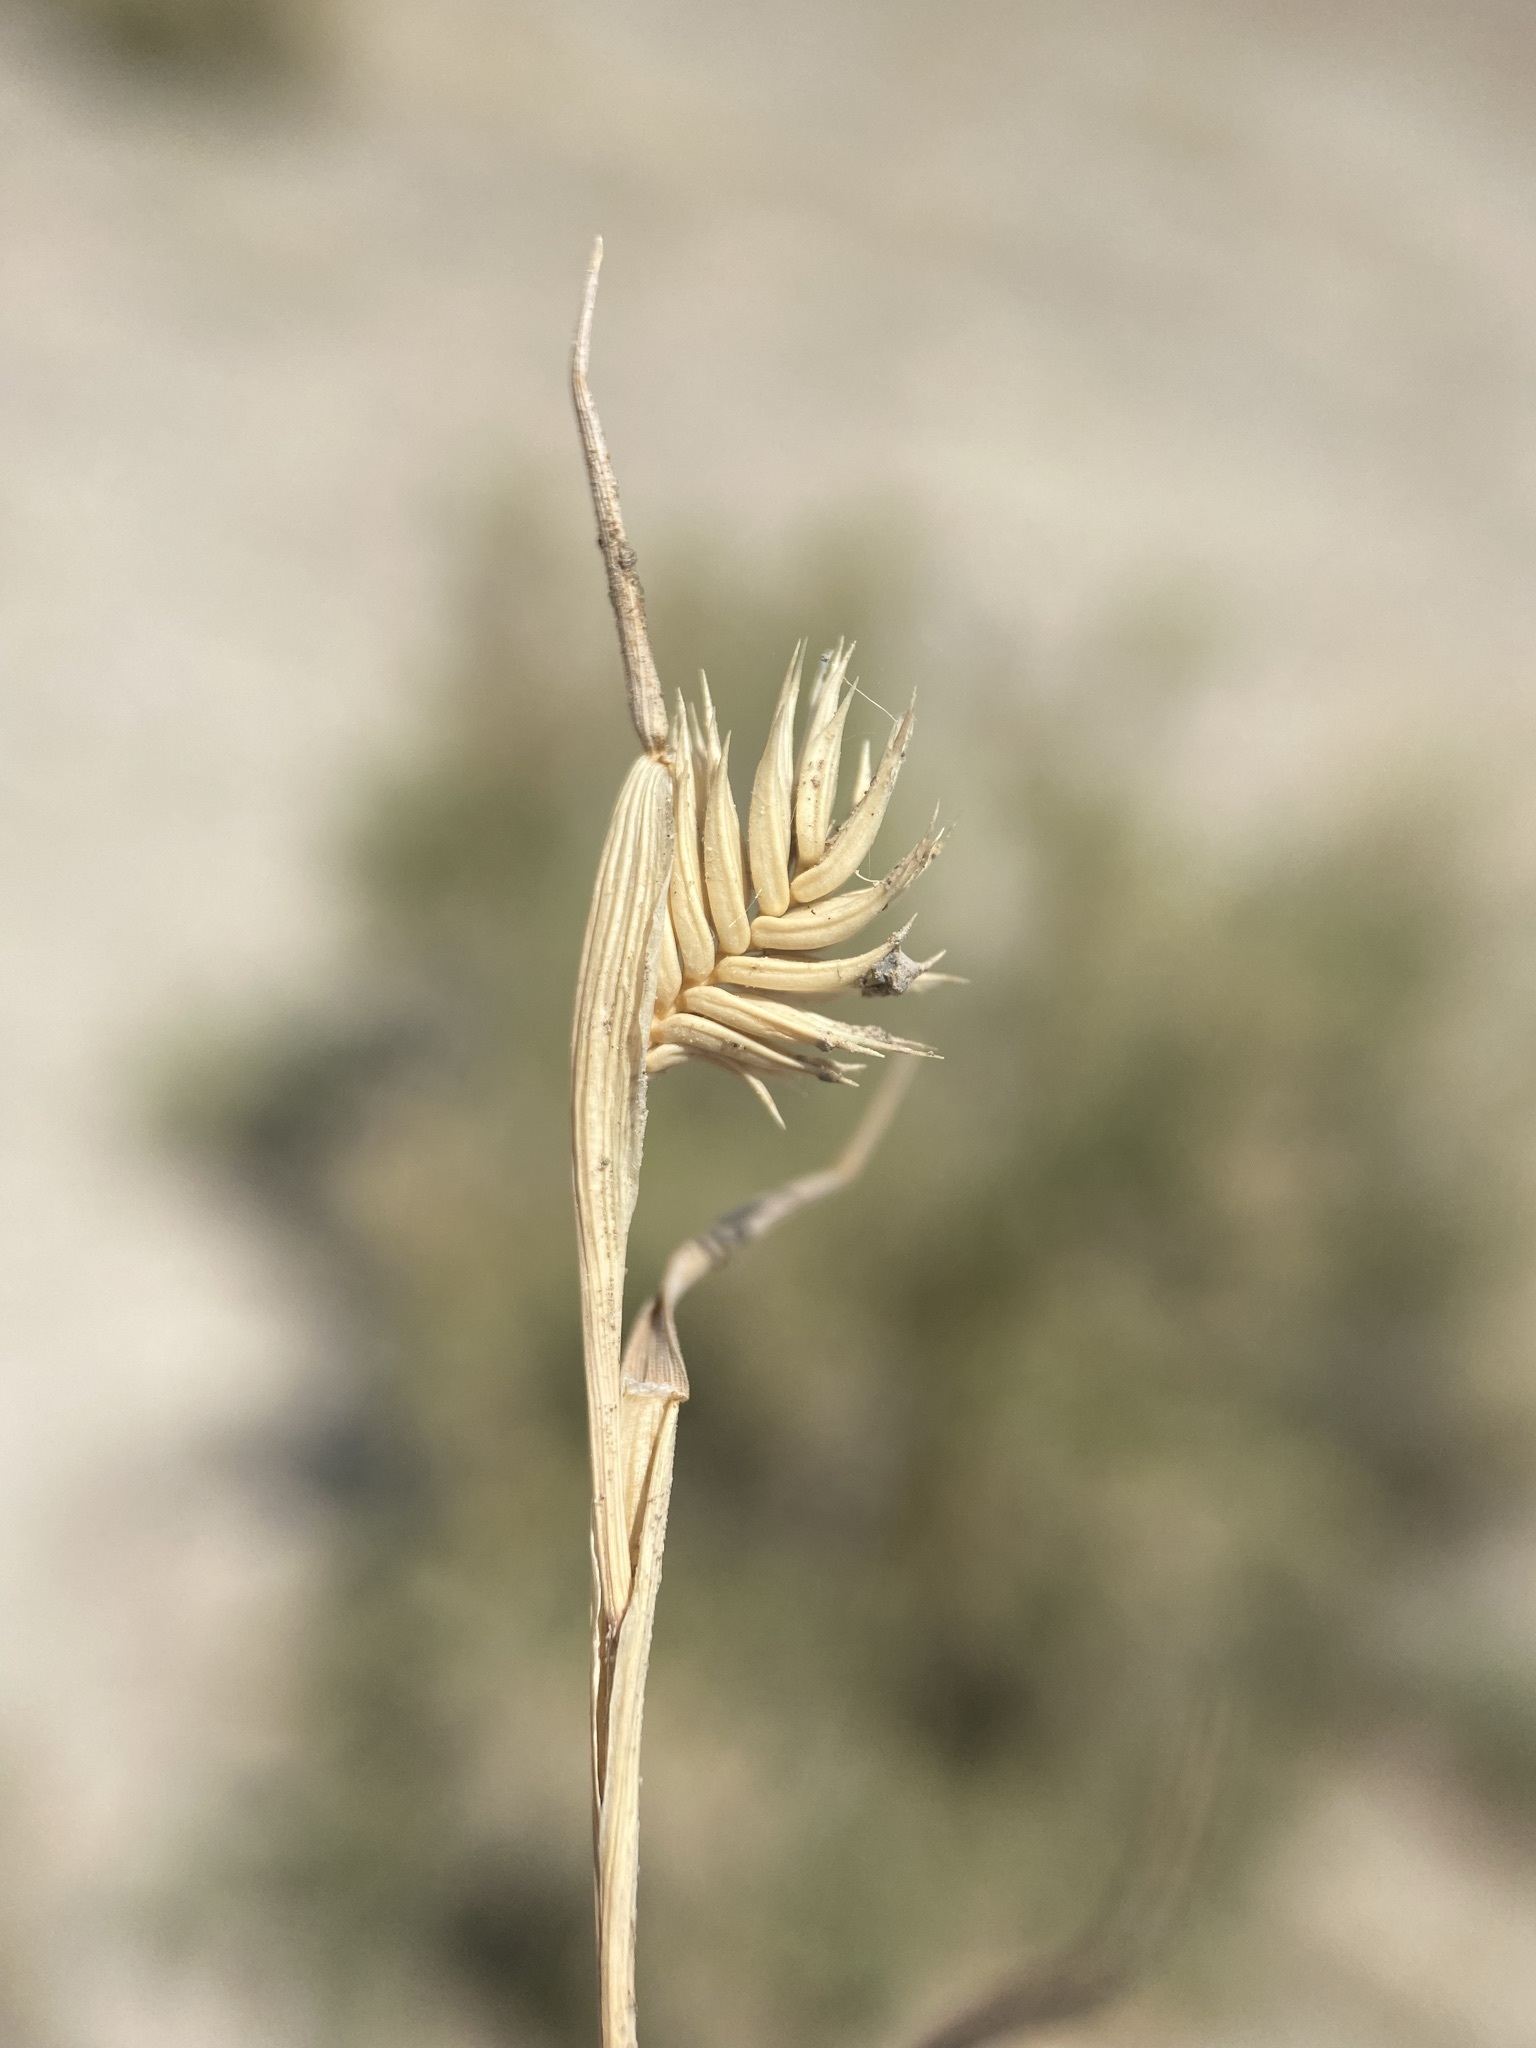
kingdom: Plantae
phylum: Tracheophyta
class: Liliopsida
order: Poales
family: Poaceae
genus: Eremopyrum
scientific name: Eremopyrum triticeum
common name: Annual wheatgrass
